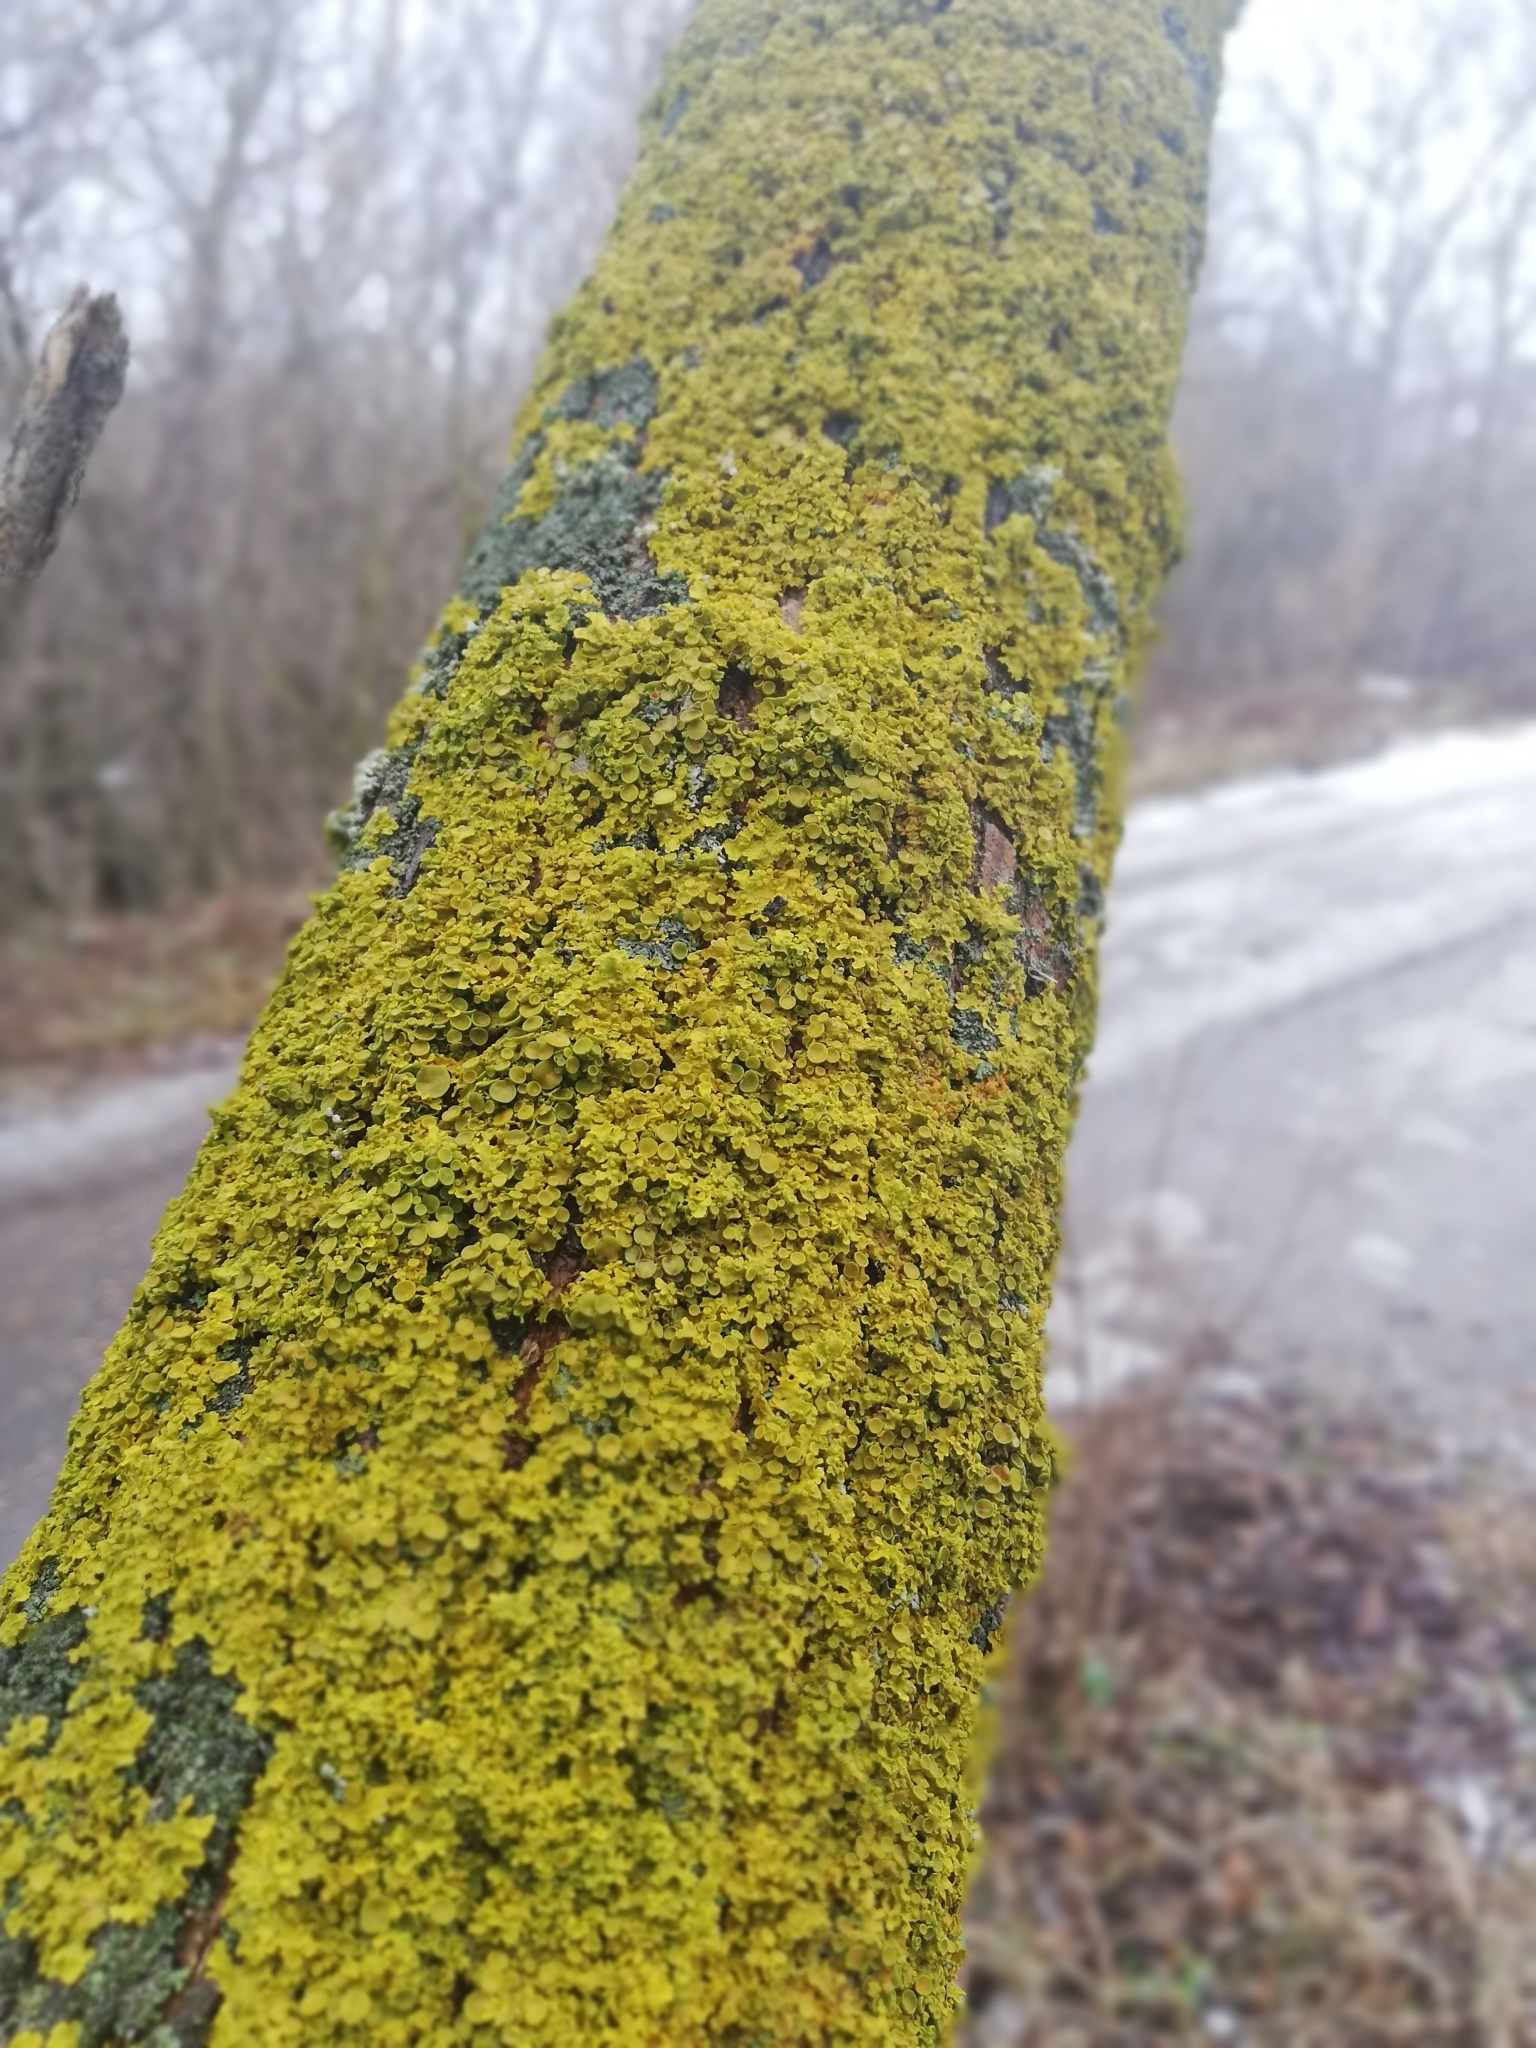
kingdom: Fungi
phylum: Ascomycota
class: Lecanoromycetes
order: Teloschistales
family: Teloschistaceae
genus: Xanthoria
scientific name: Xanthoria parietina
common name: Common orange lichen
